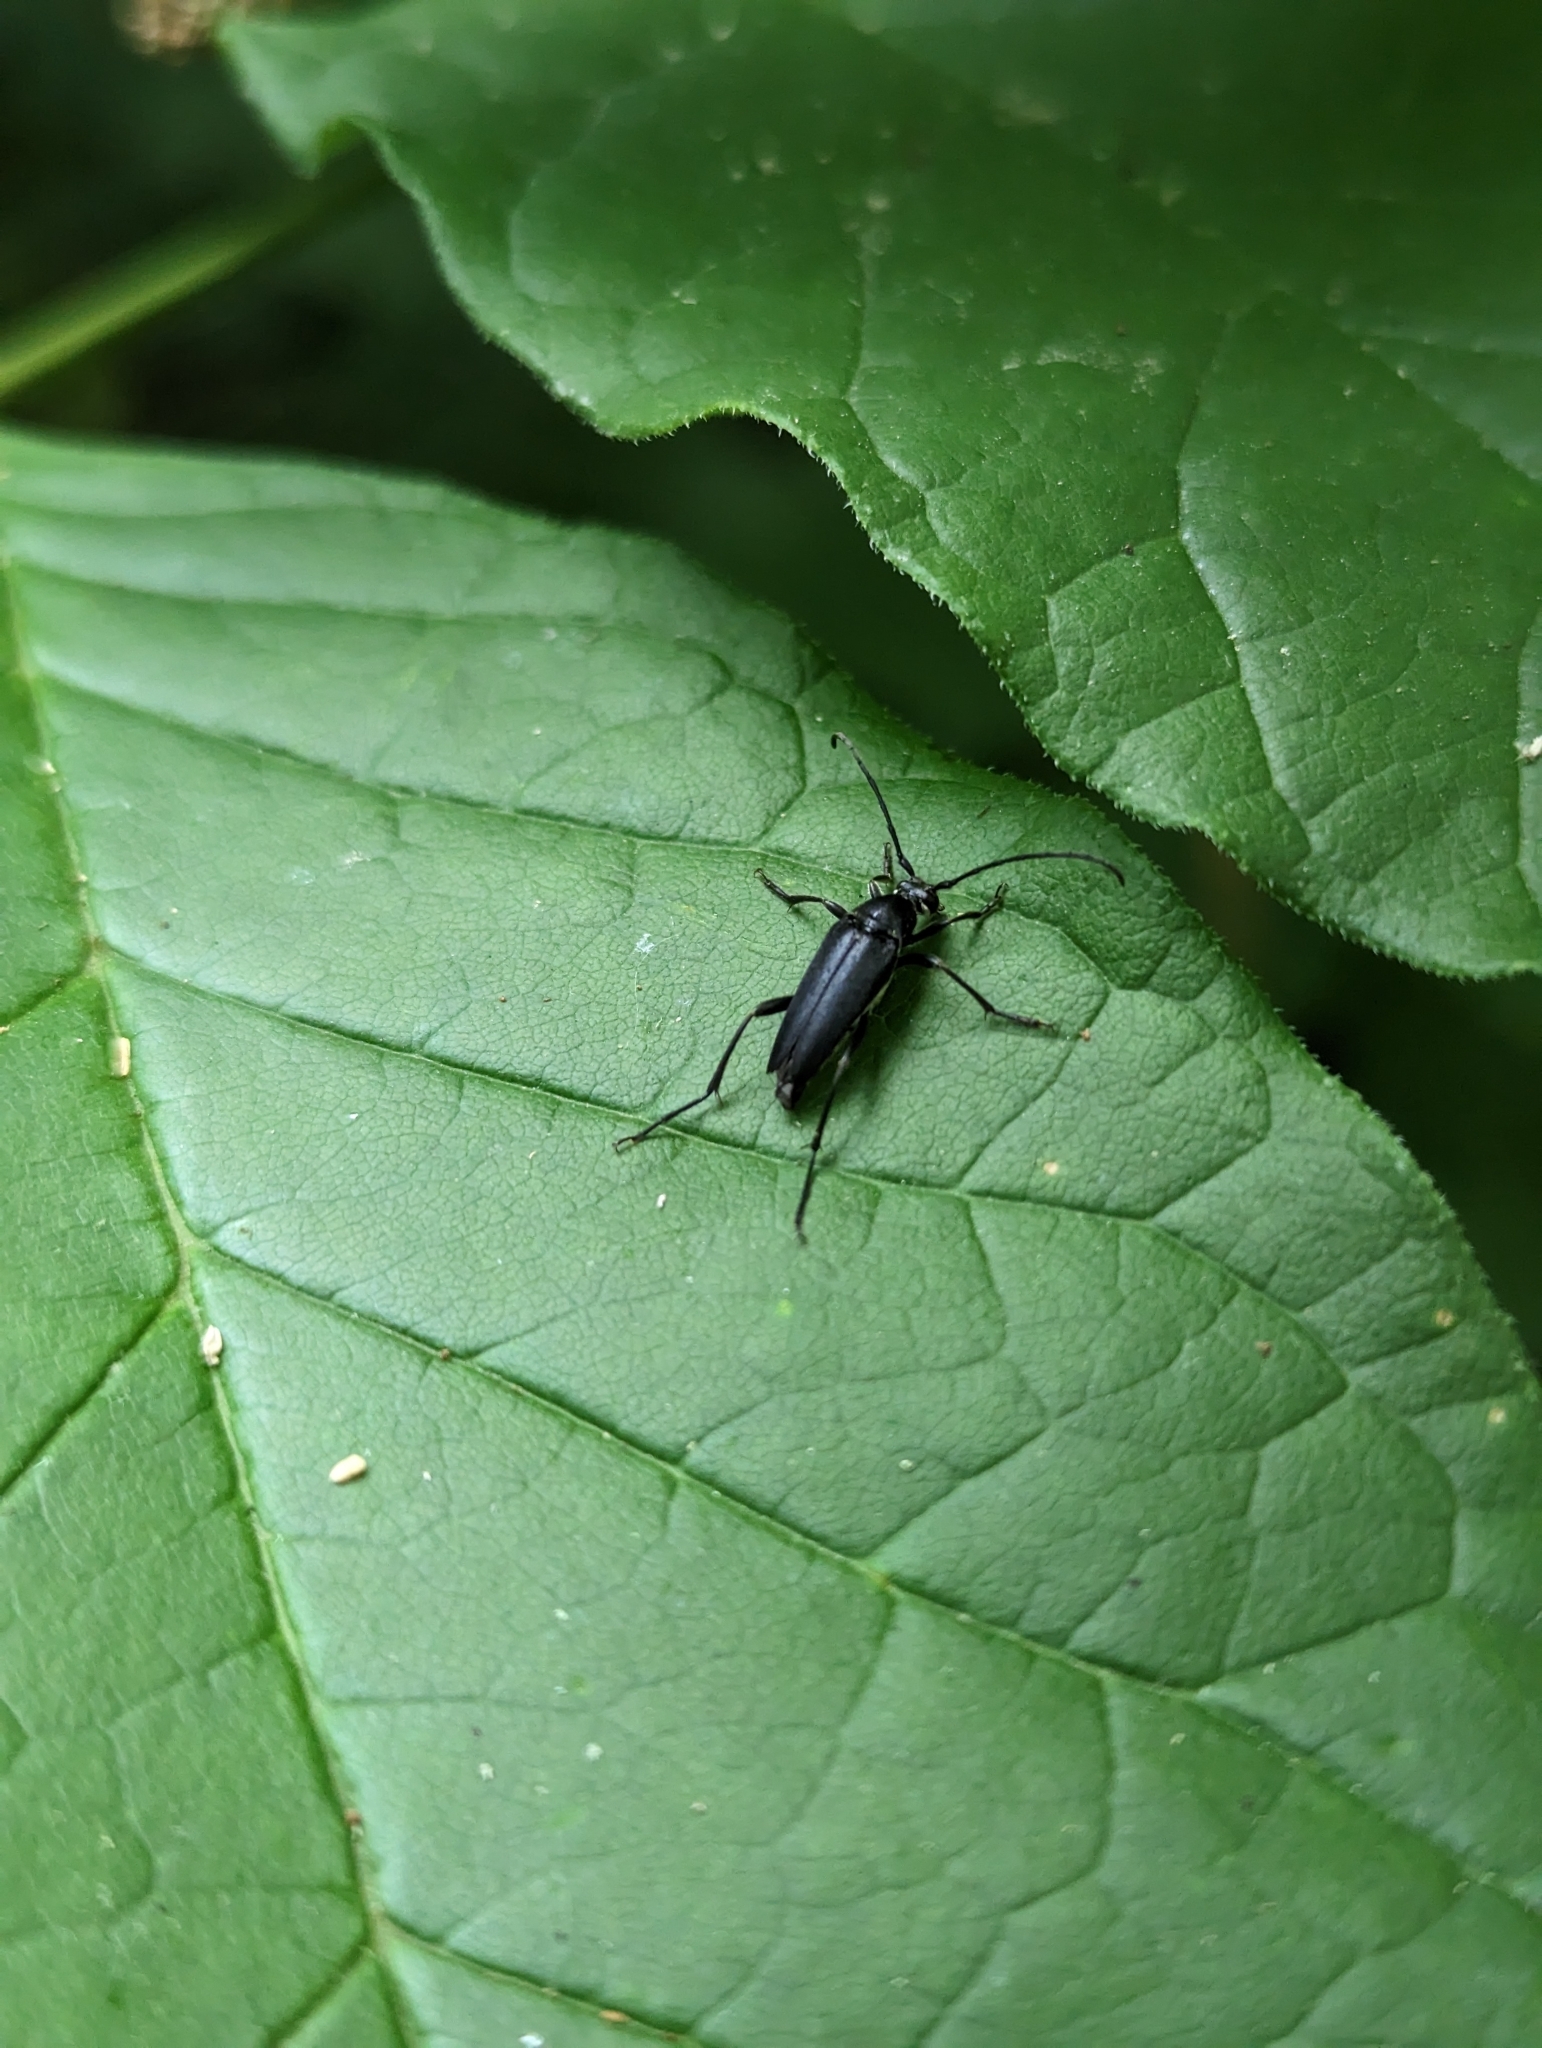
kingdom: Animalia
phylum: Arthropoda
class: Insecta
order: Coleoptera
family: Cerambycidae
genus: Typocerus
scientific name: Typocerus lugubris
